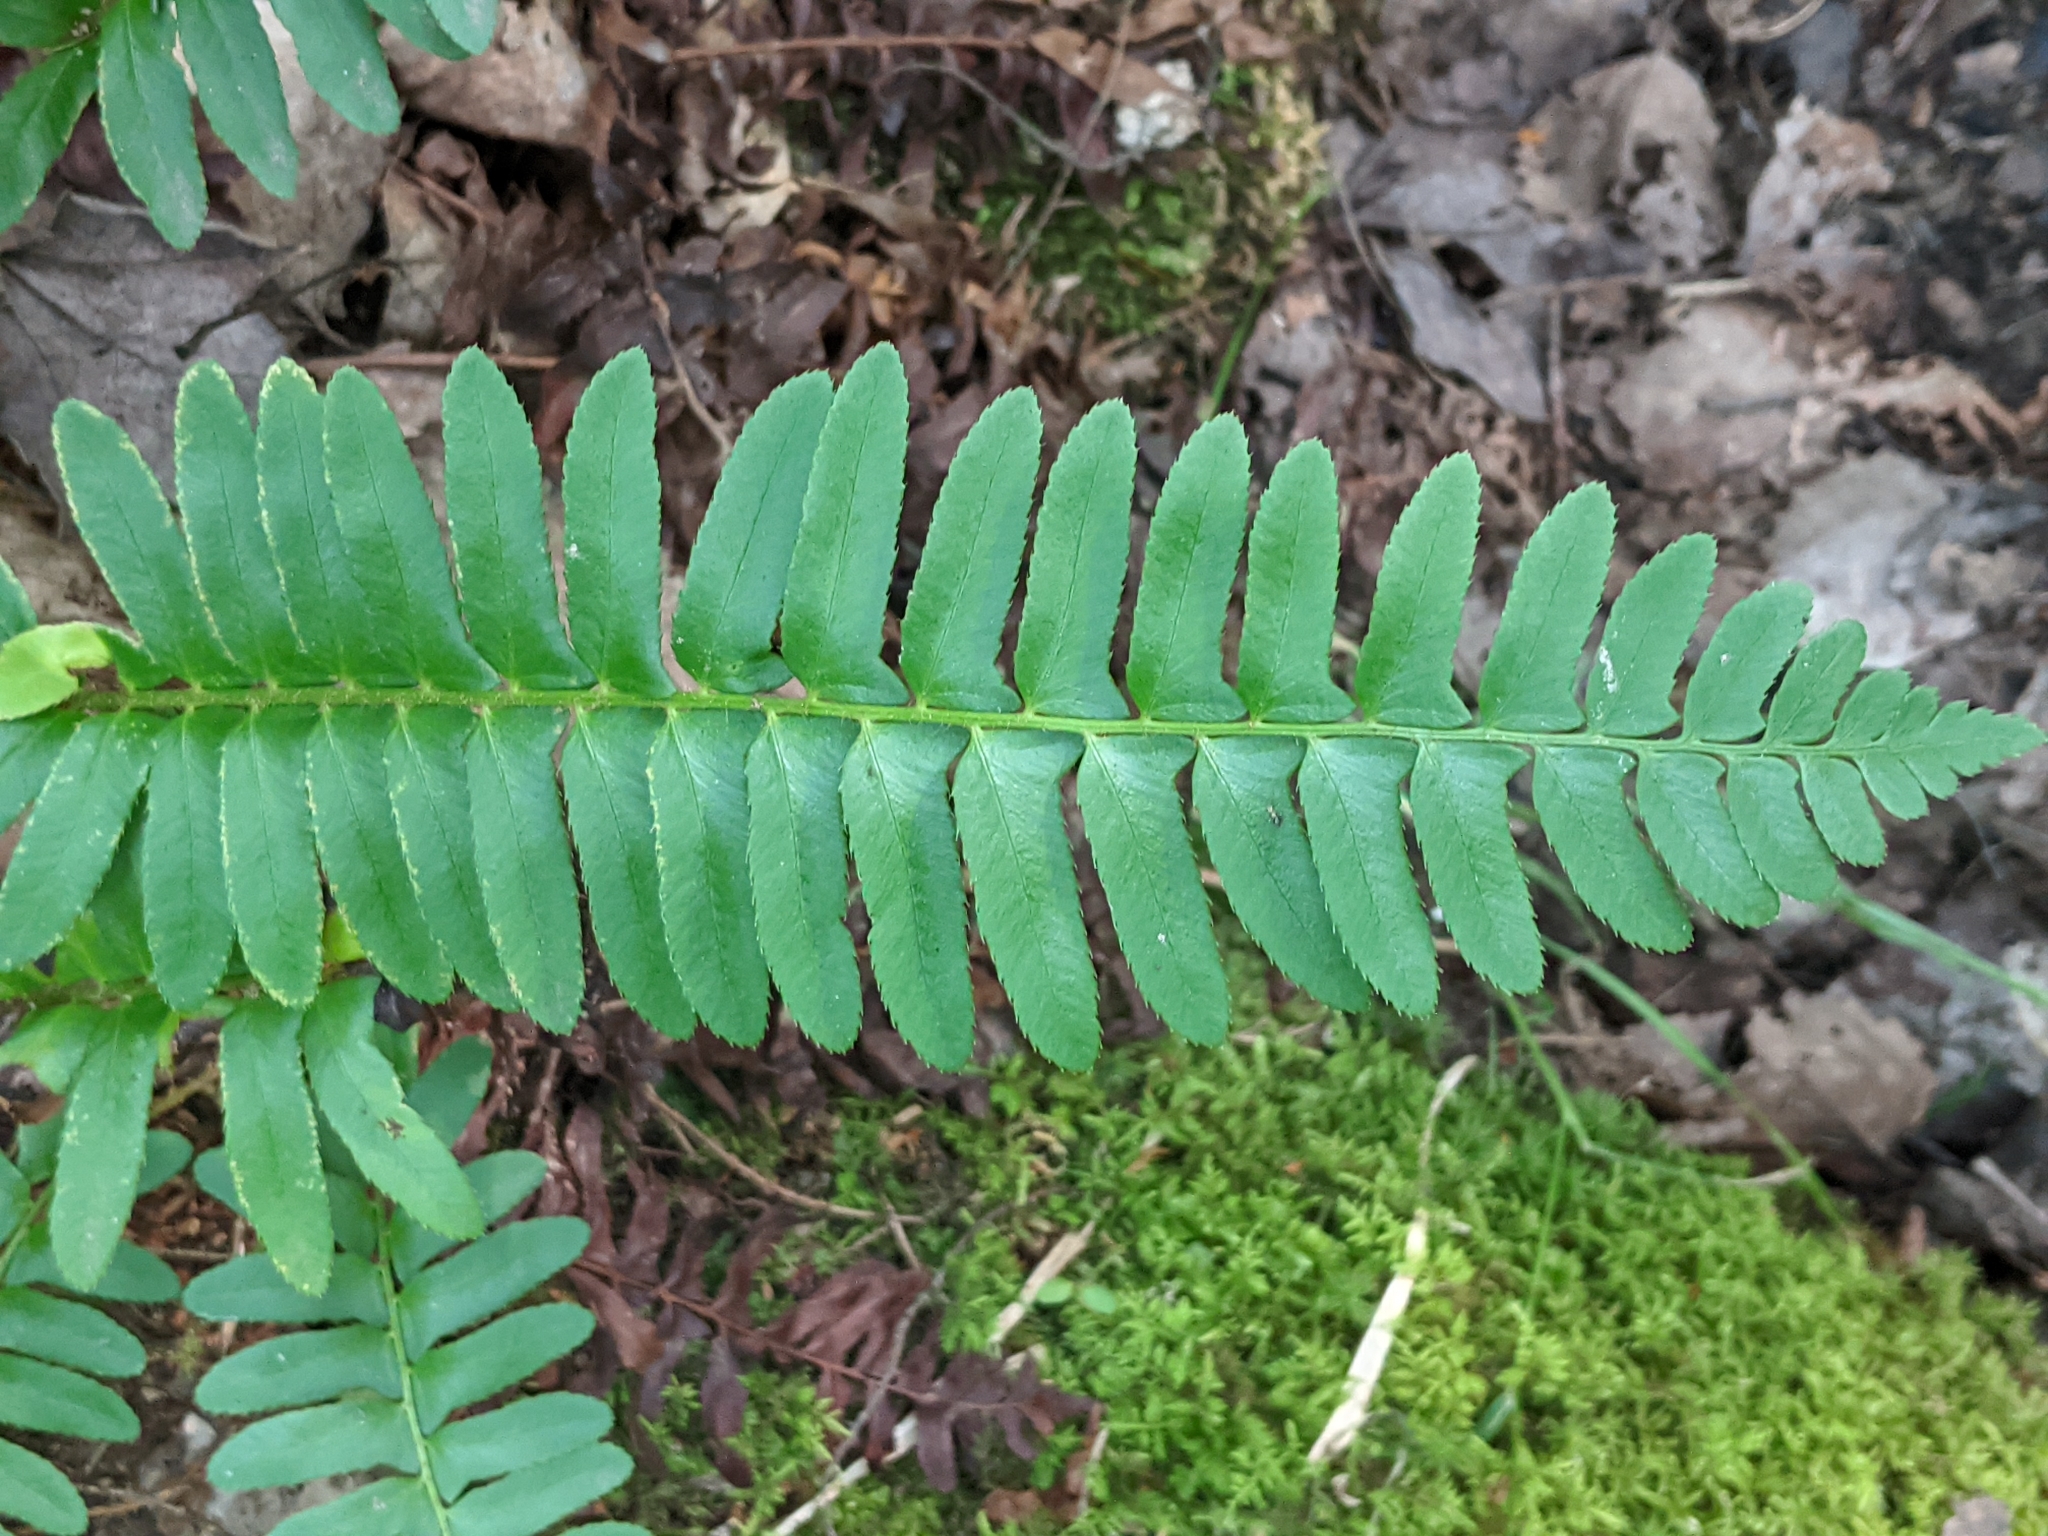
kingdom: Plantae
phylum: Tracheophyta
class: Polypodiopsida
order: Polypodiales
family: Dryopteridaceae
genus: Polystichum
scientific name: Polystichum acrostichoides
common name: Christmas fern
